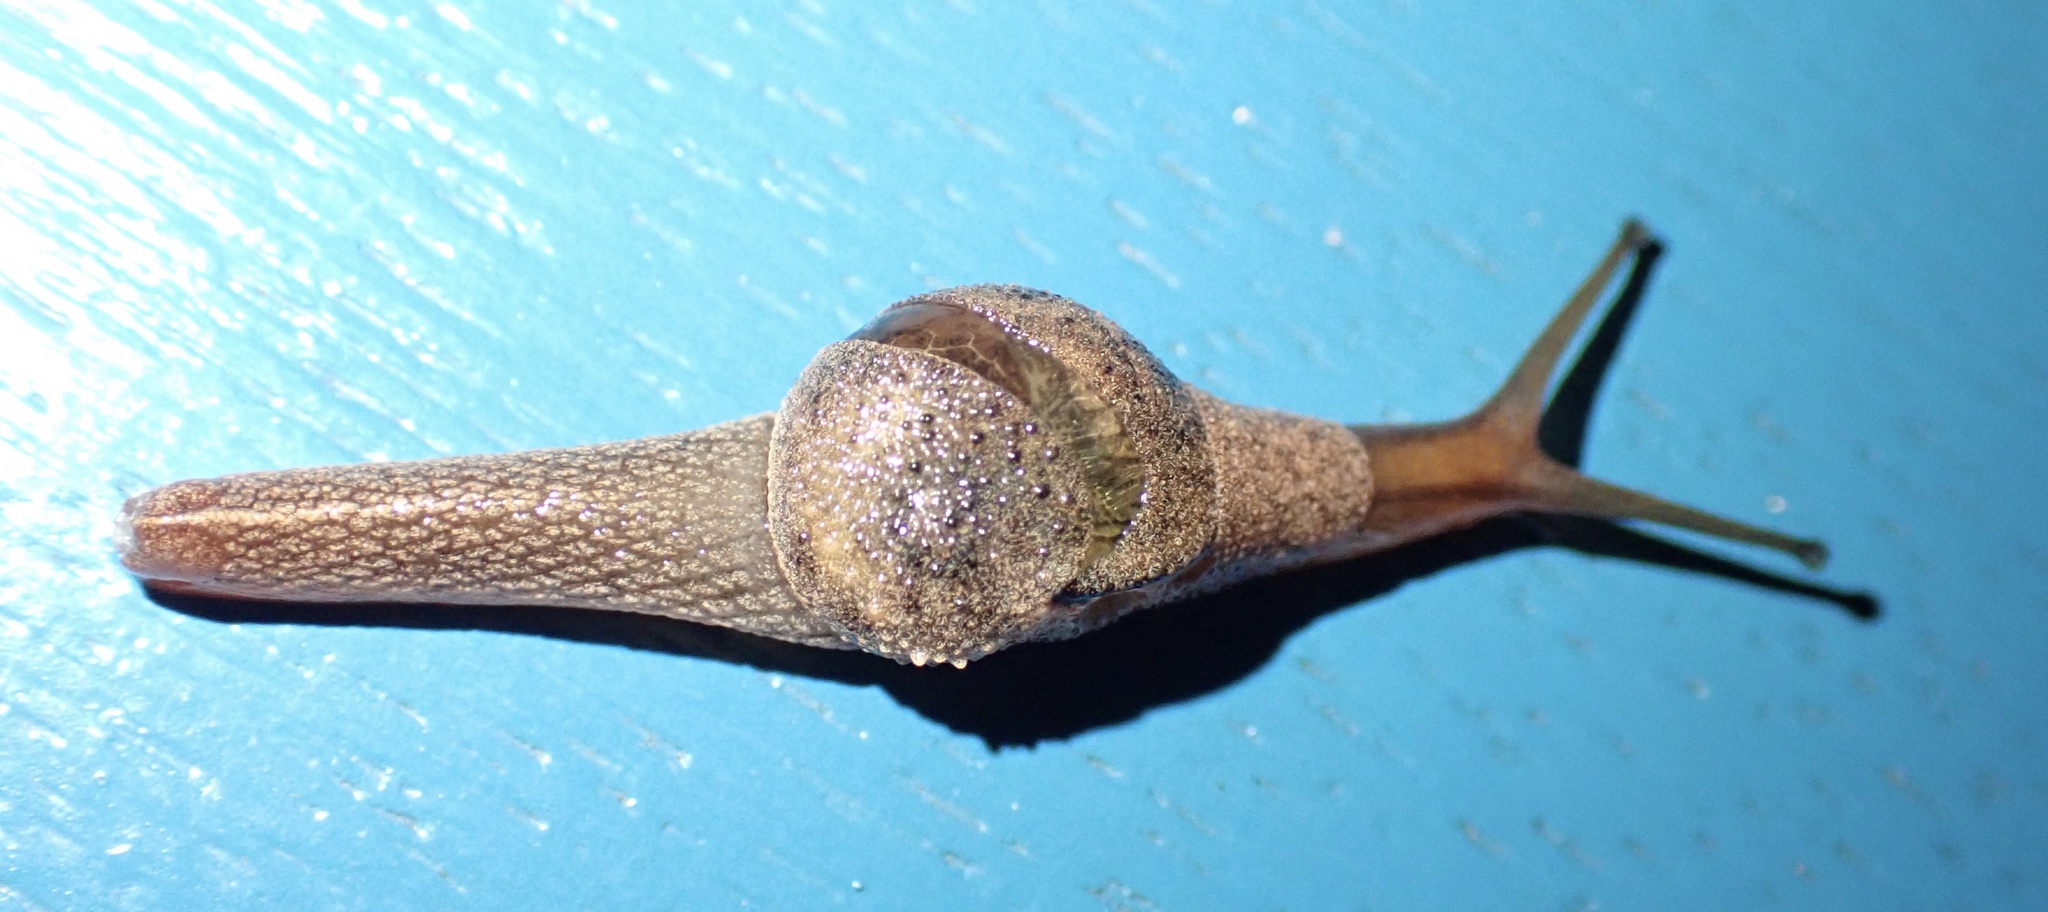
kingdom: Animalia
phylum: Mollusca
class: Gastropoda
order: Stylommatophora
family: Helicarionidae
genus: Stanisicarion
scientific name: Stanisicarion freycineti
